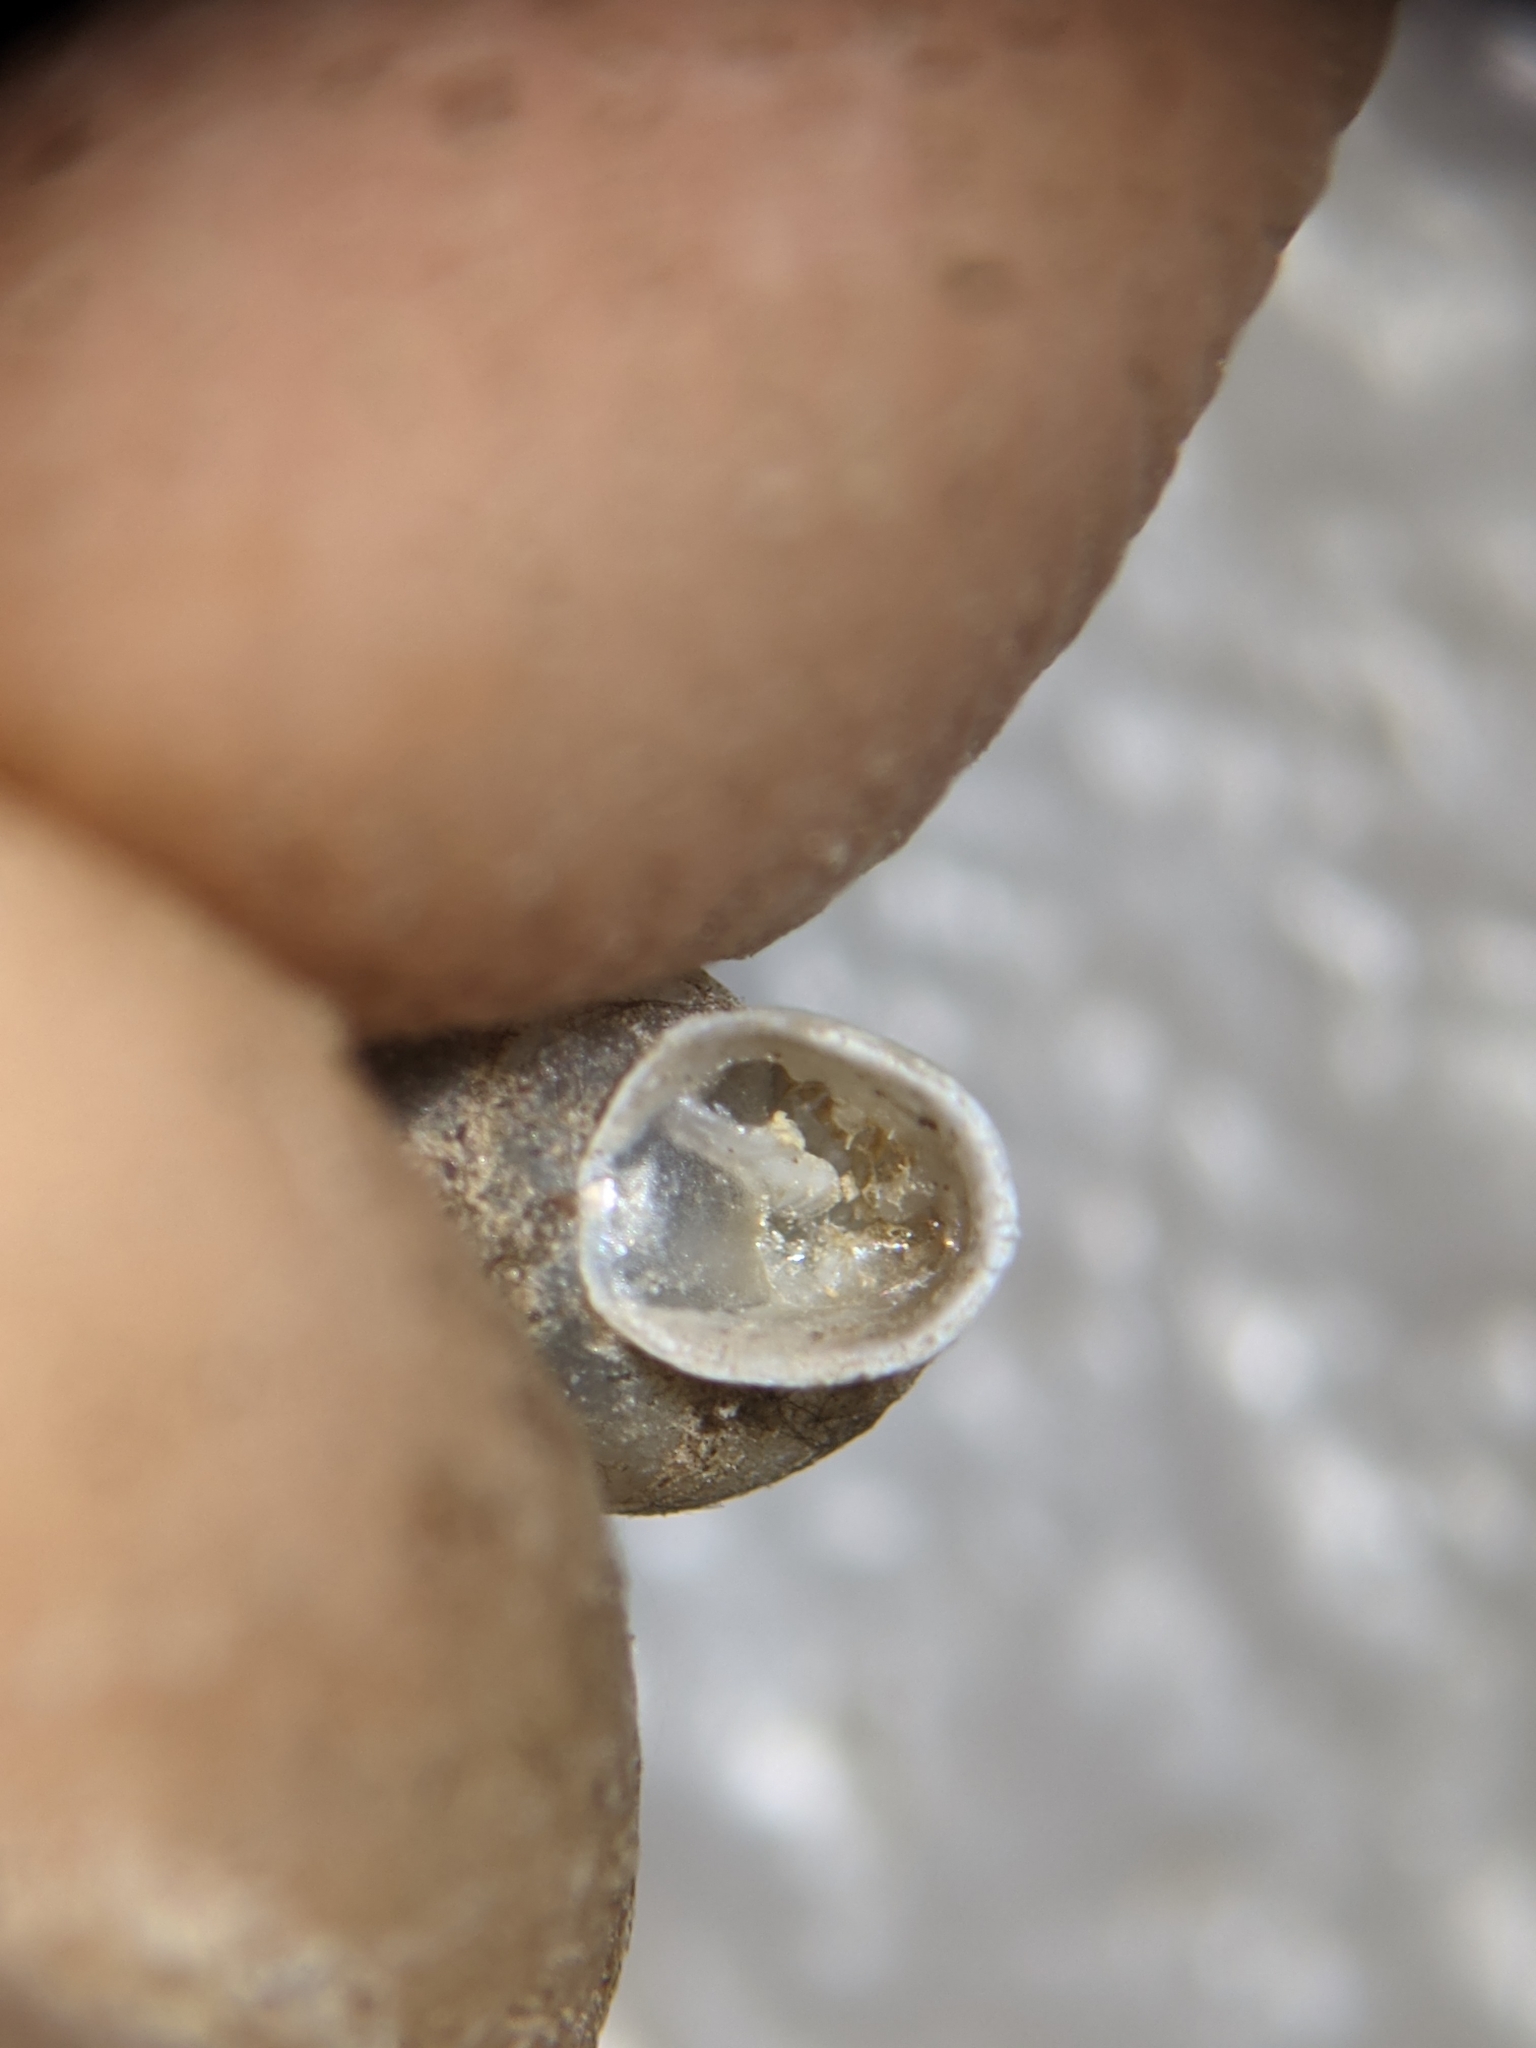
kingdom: Animalia
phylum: Mollusca
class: Gastropoda
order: Stylommatophora
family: Gastrocoptidae
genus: Gastrocopta
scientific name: Gastrocopta armifera
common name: Armed snaggletooth
